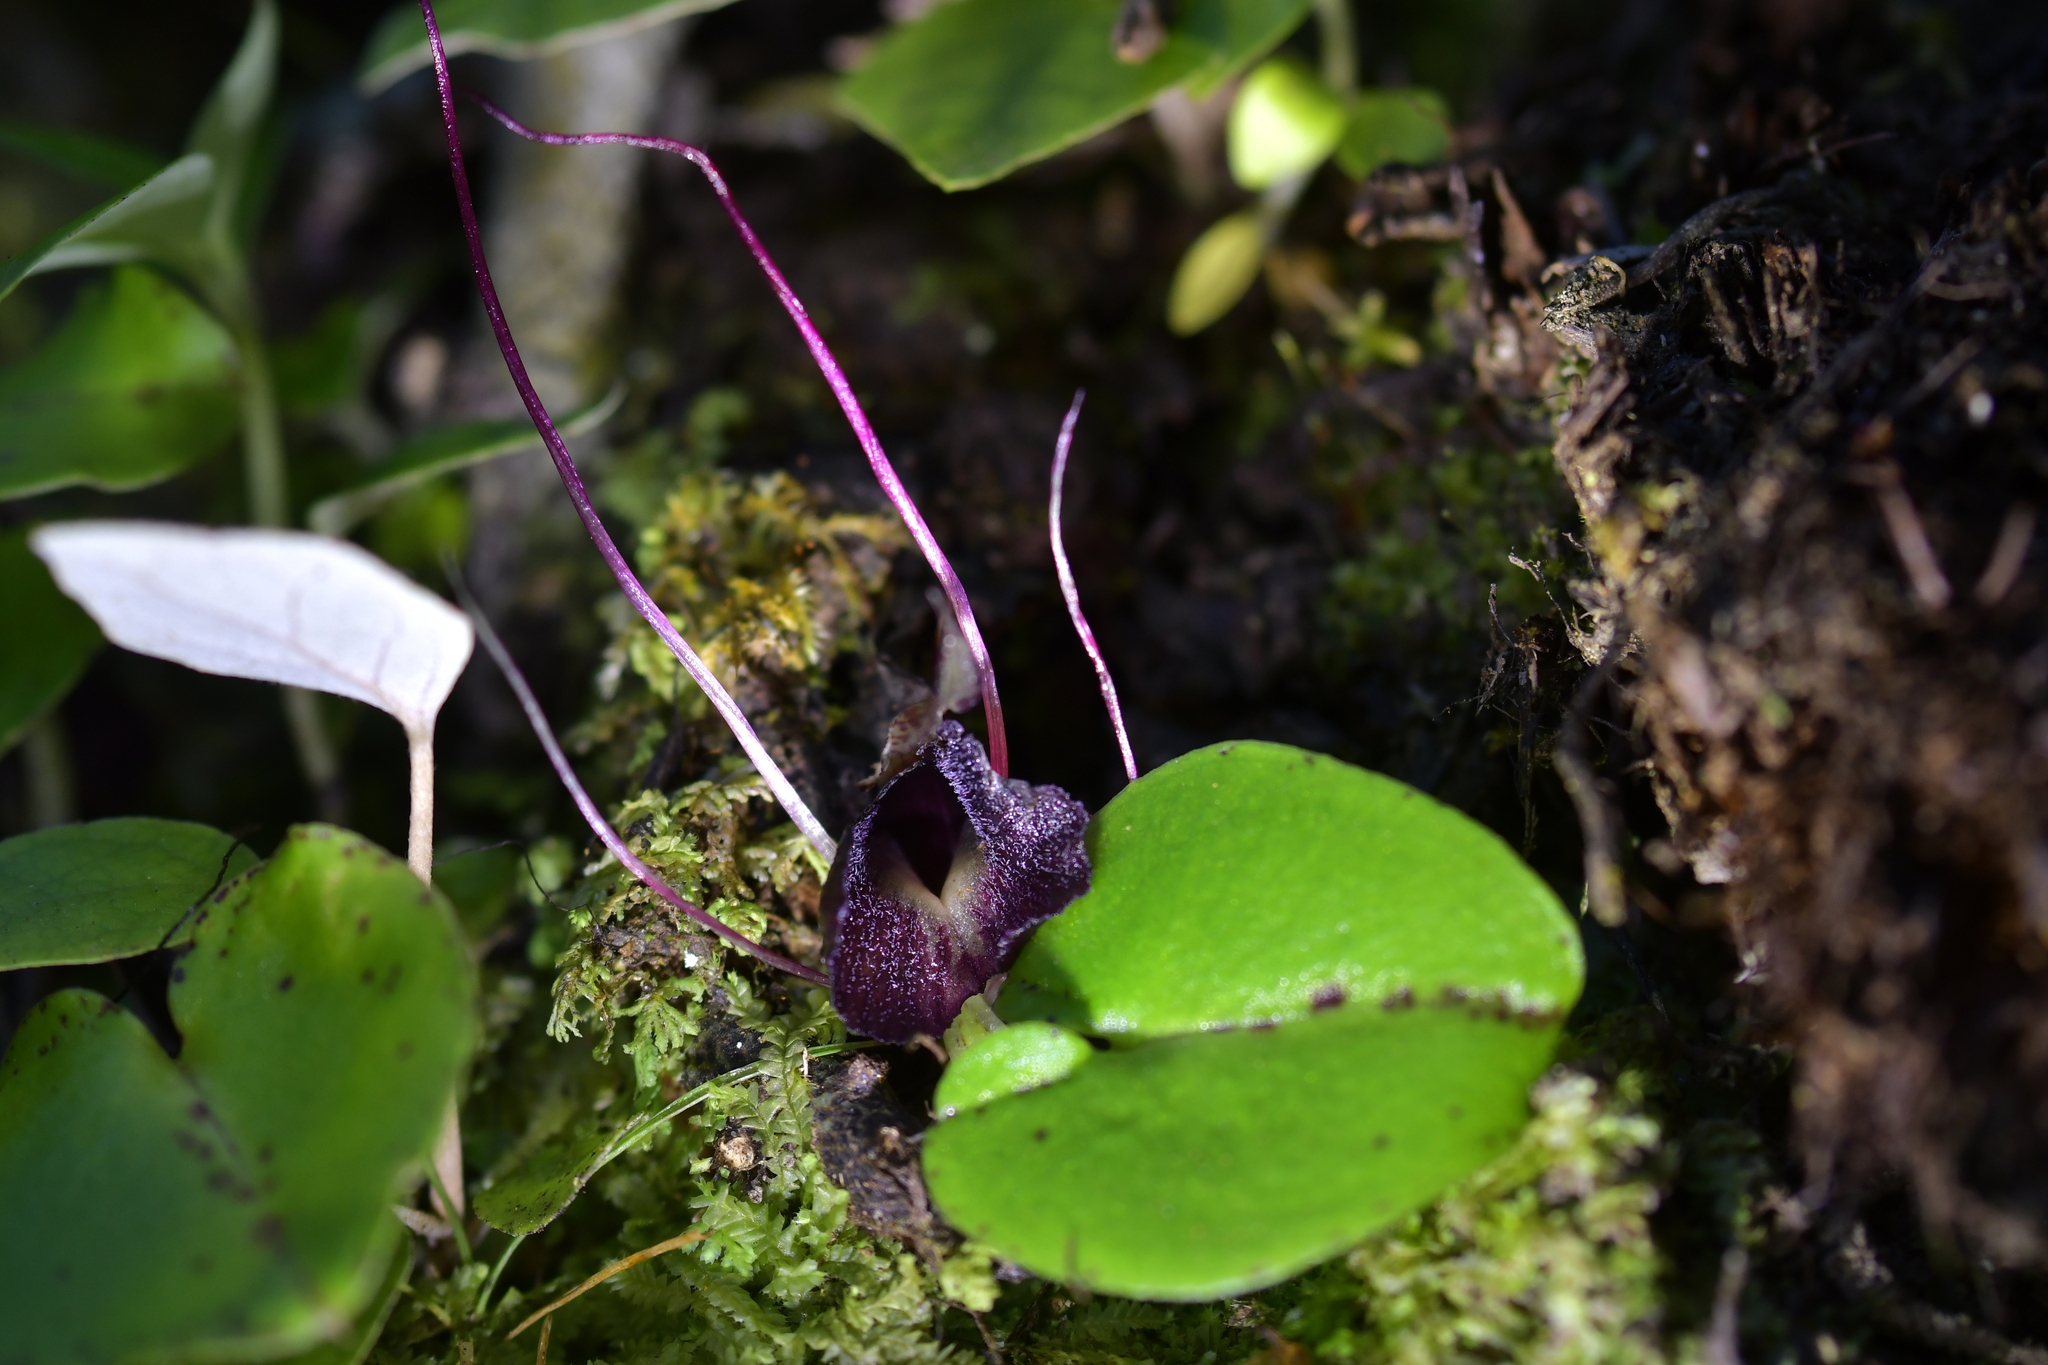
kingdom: Plantae
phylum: Tracheophyta
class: Liliopsida
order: Asparagales
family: Orchidaceae
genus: Corybas
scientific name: Corybas macranthus
